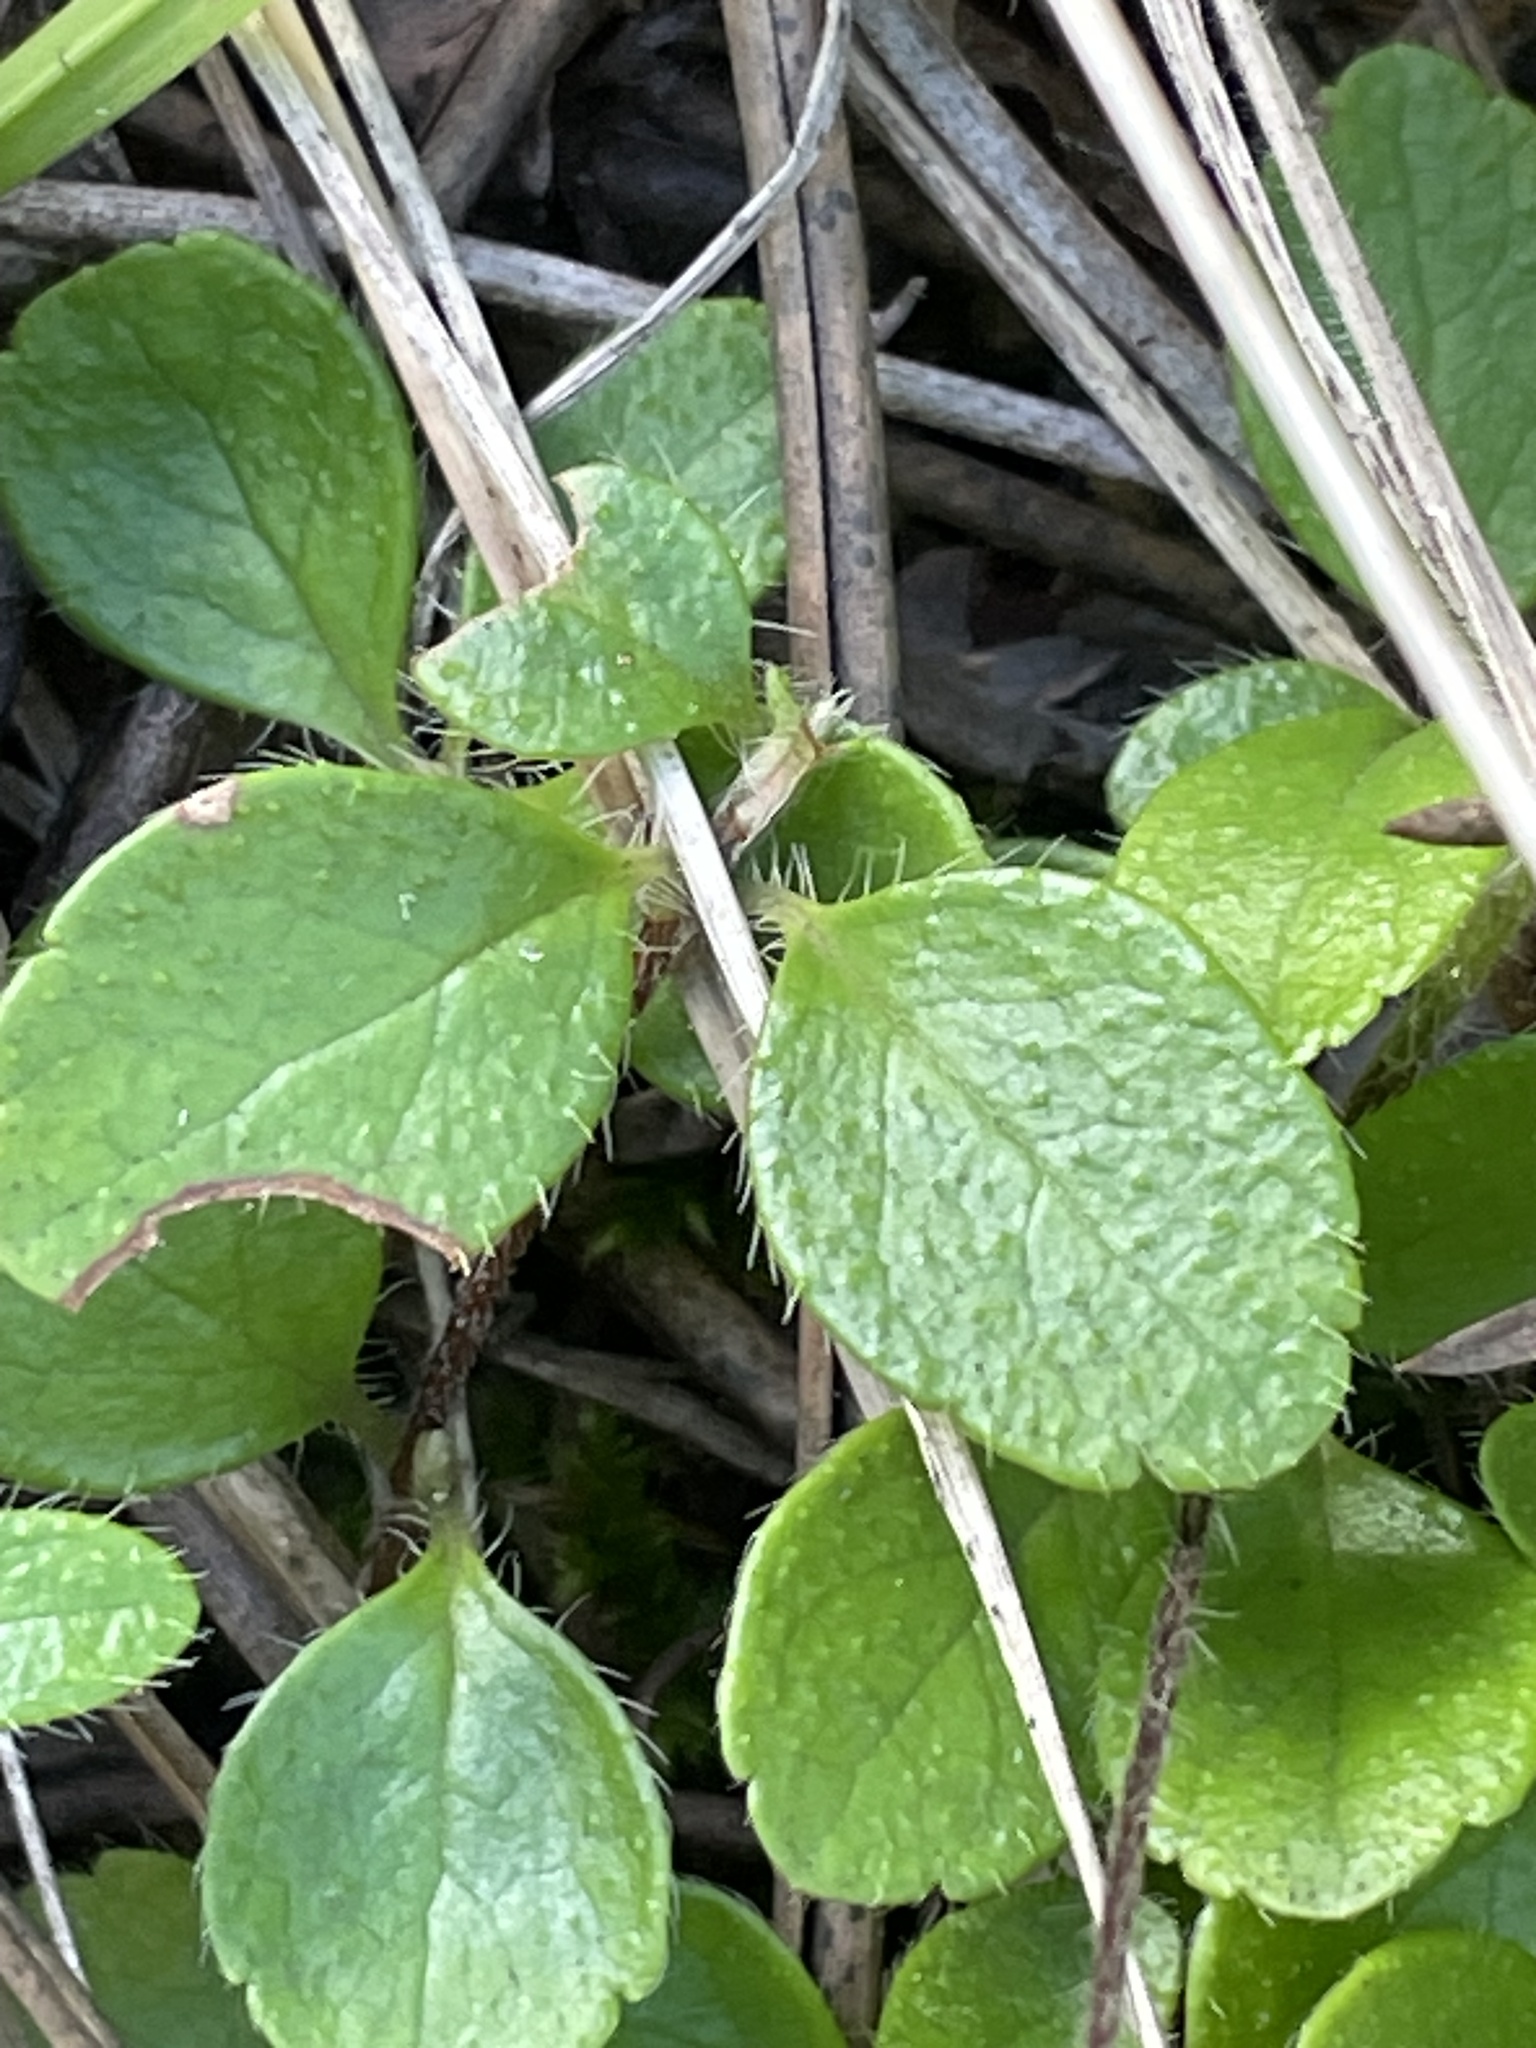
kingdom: Plantae
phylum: Tracheophyta
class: Magnoliopsida
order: Dipsacales
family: Caprifoliaceae
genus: Linnaea
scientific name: Linnaea borealis
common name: Twinflower
